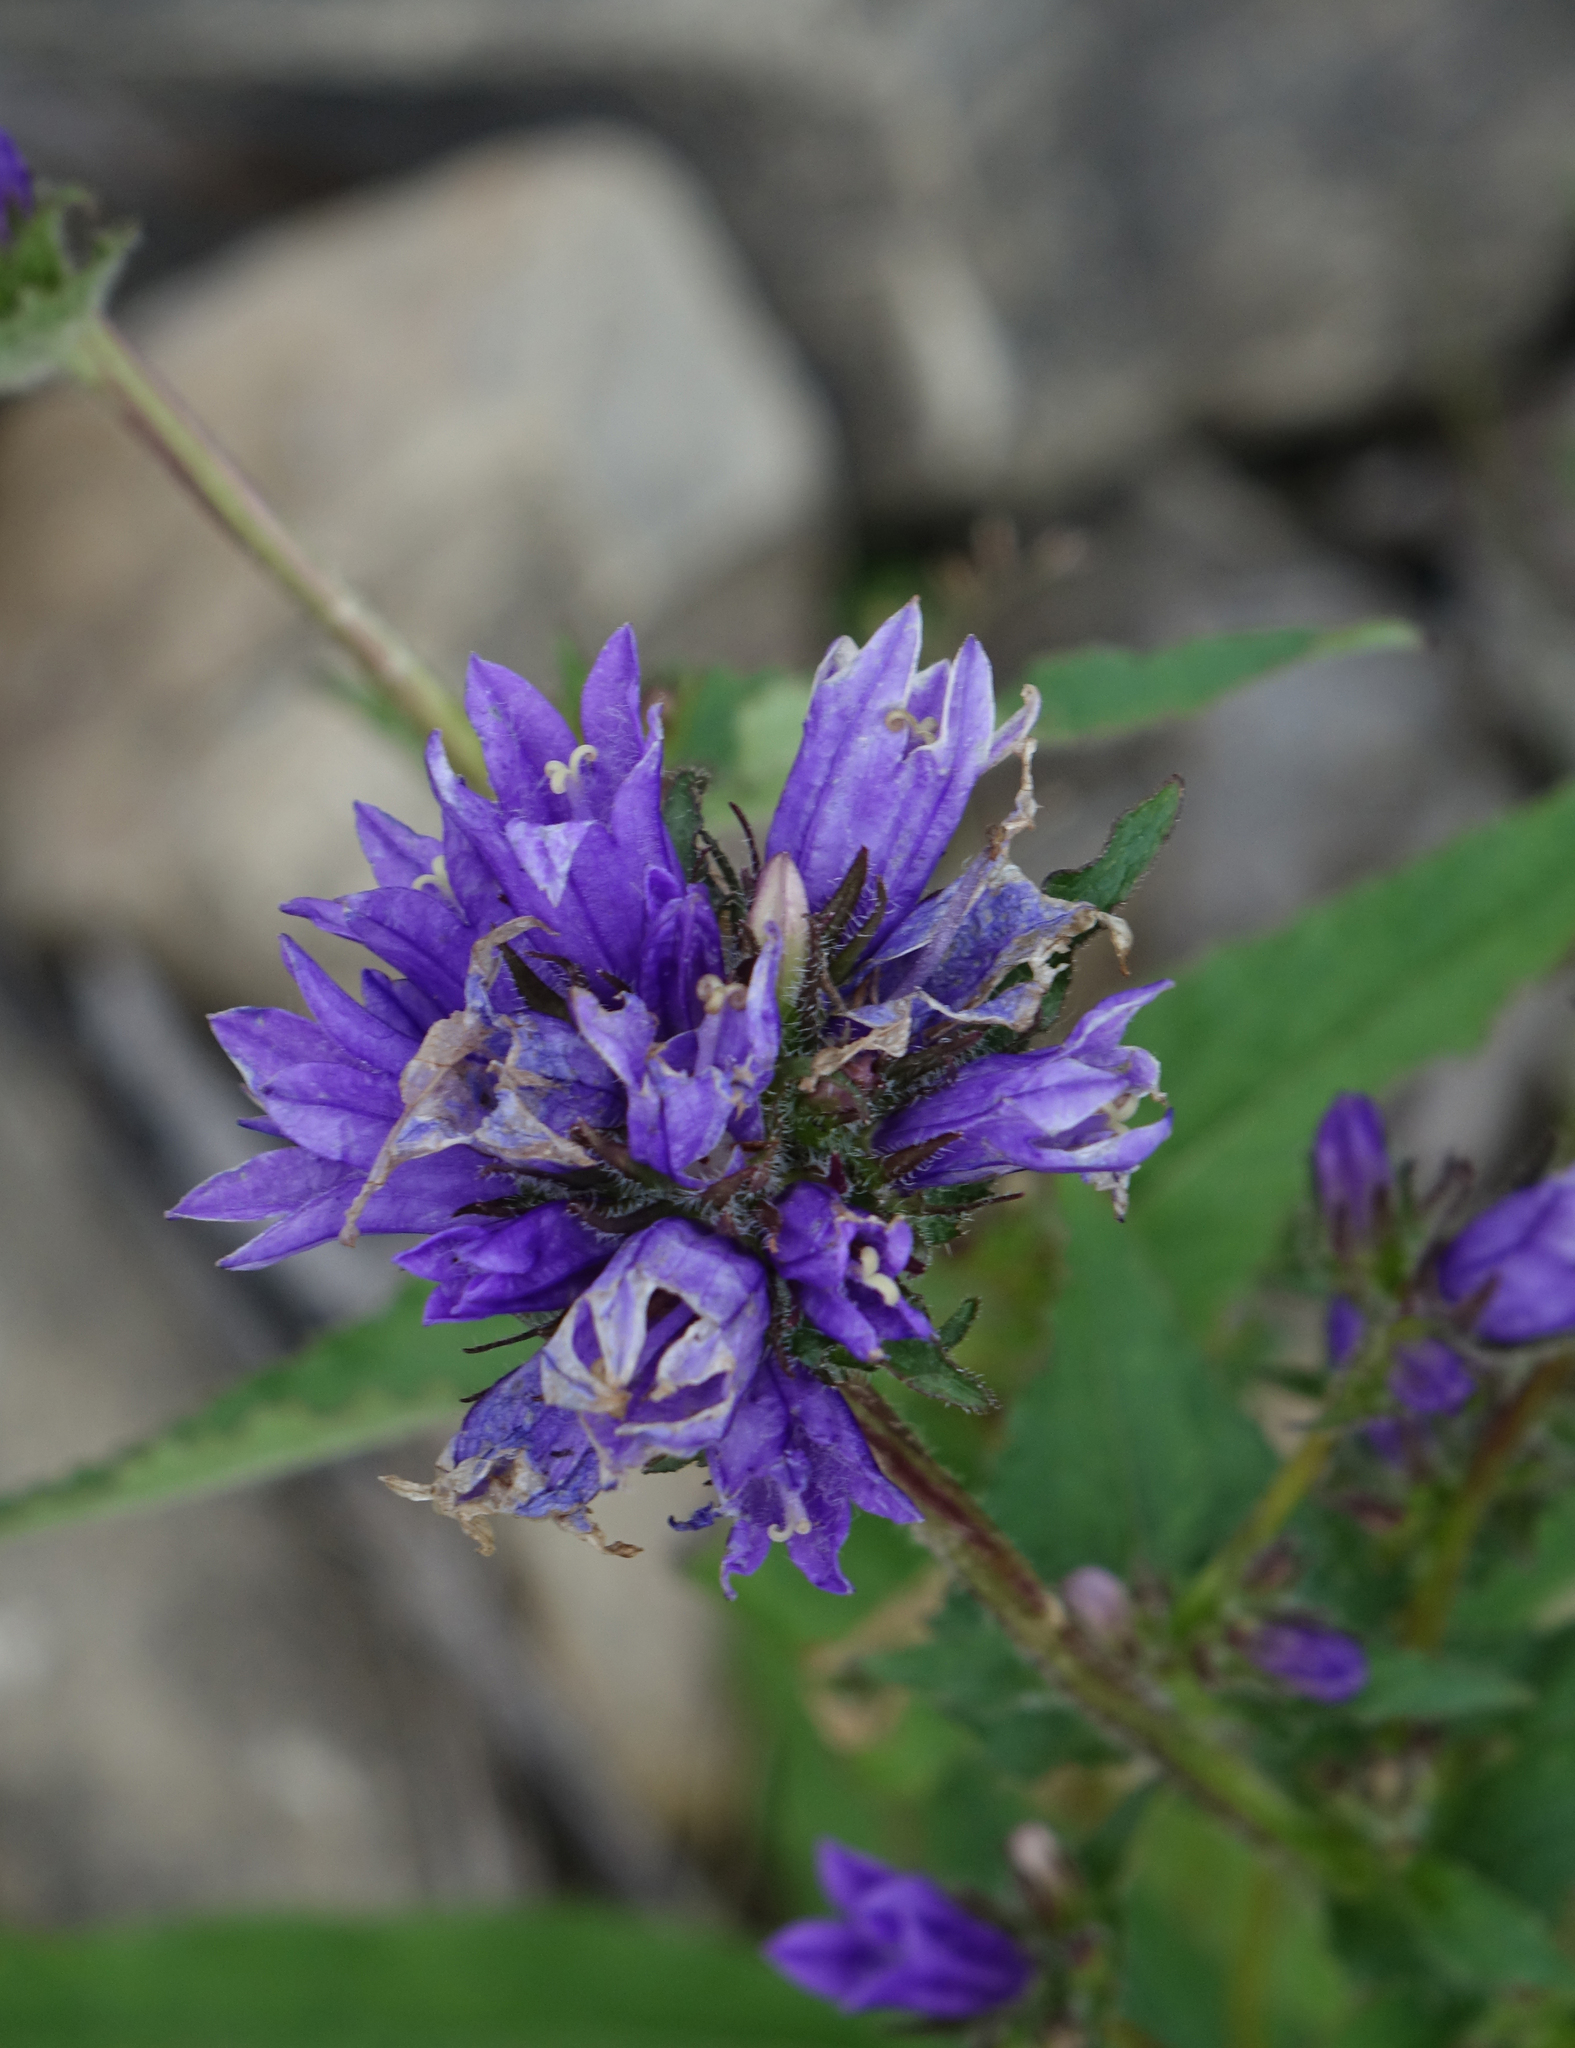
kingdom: Plantae
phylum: Tracheophyta
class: Magnoliopsida
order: Asterales
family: Campanulaceae
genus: Campanula
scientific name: Campanula glomerata
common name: Clustered bellflower
